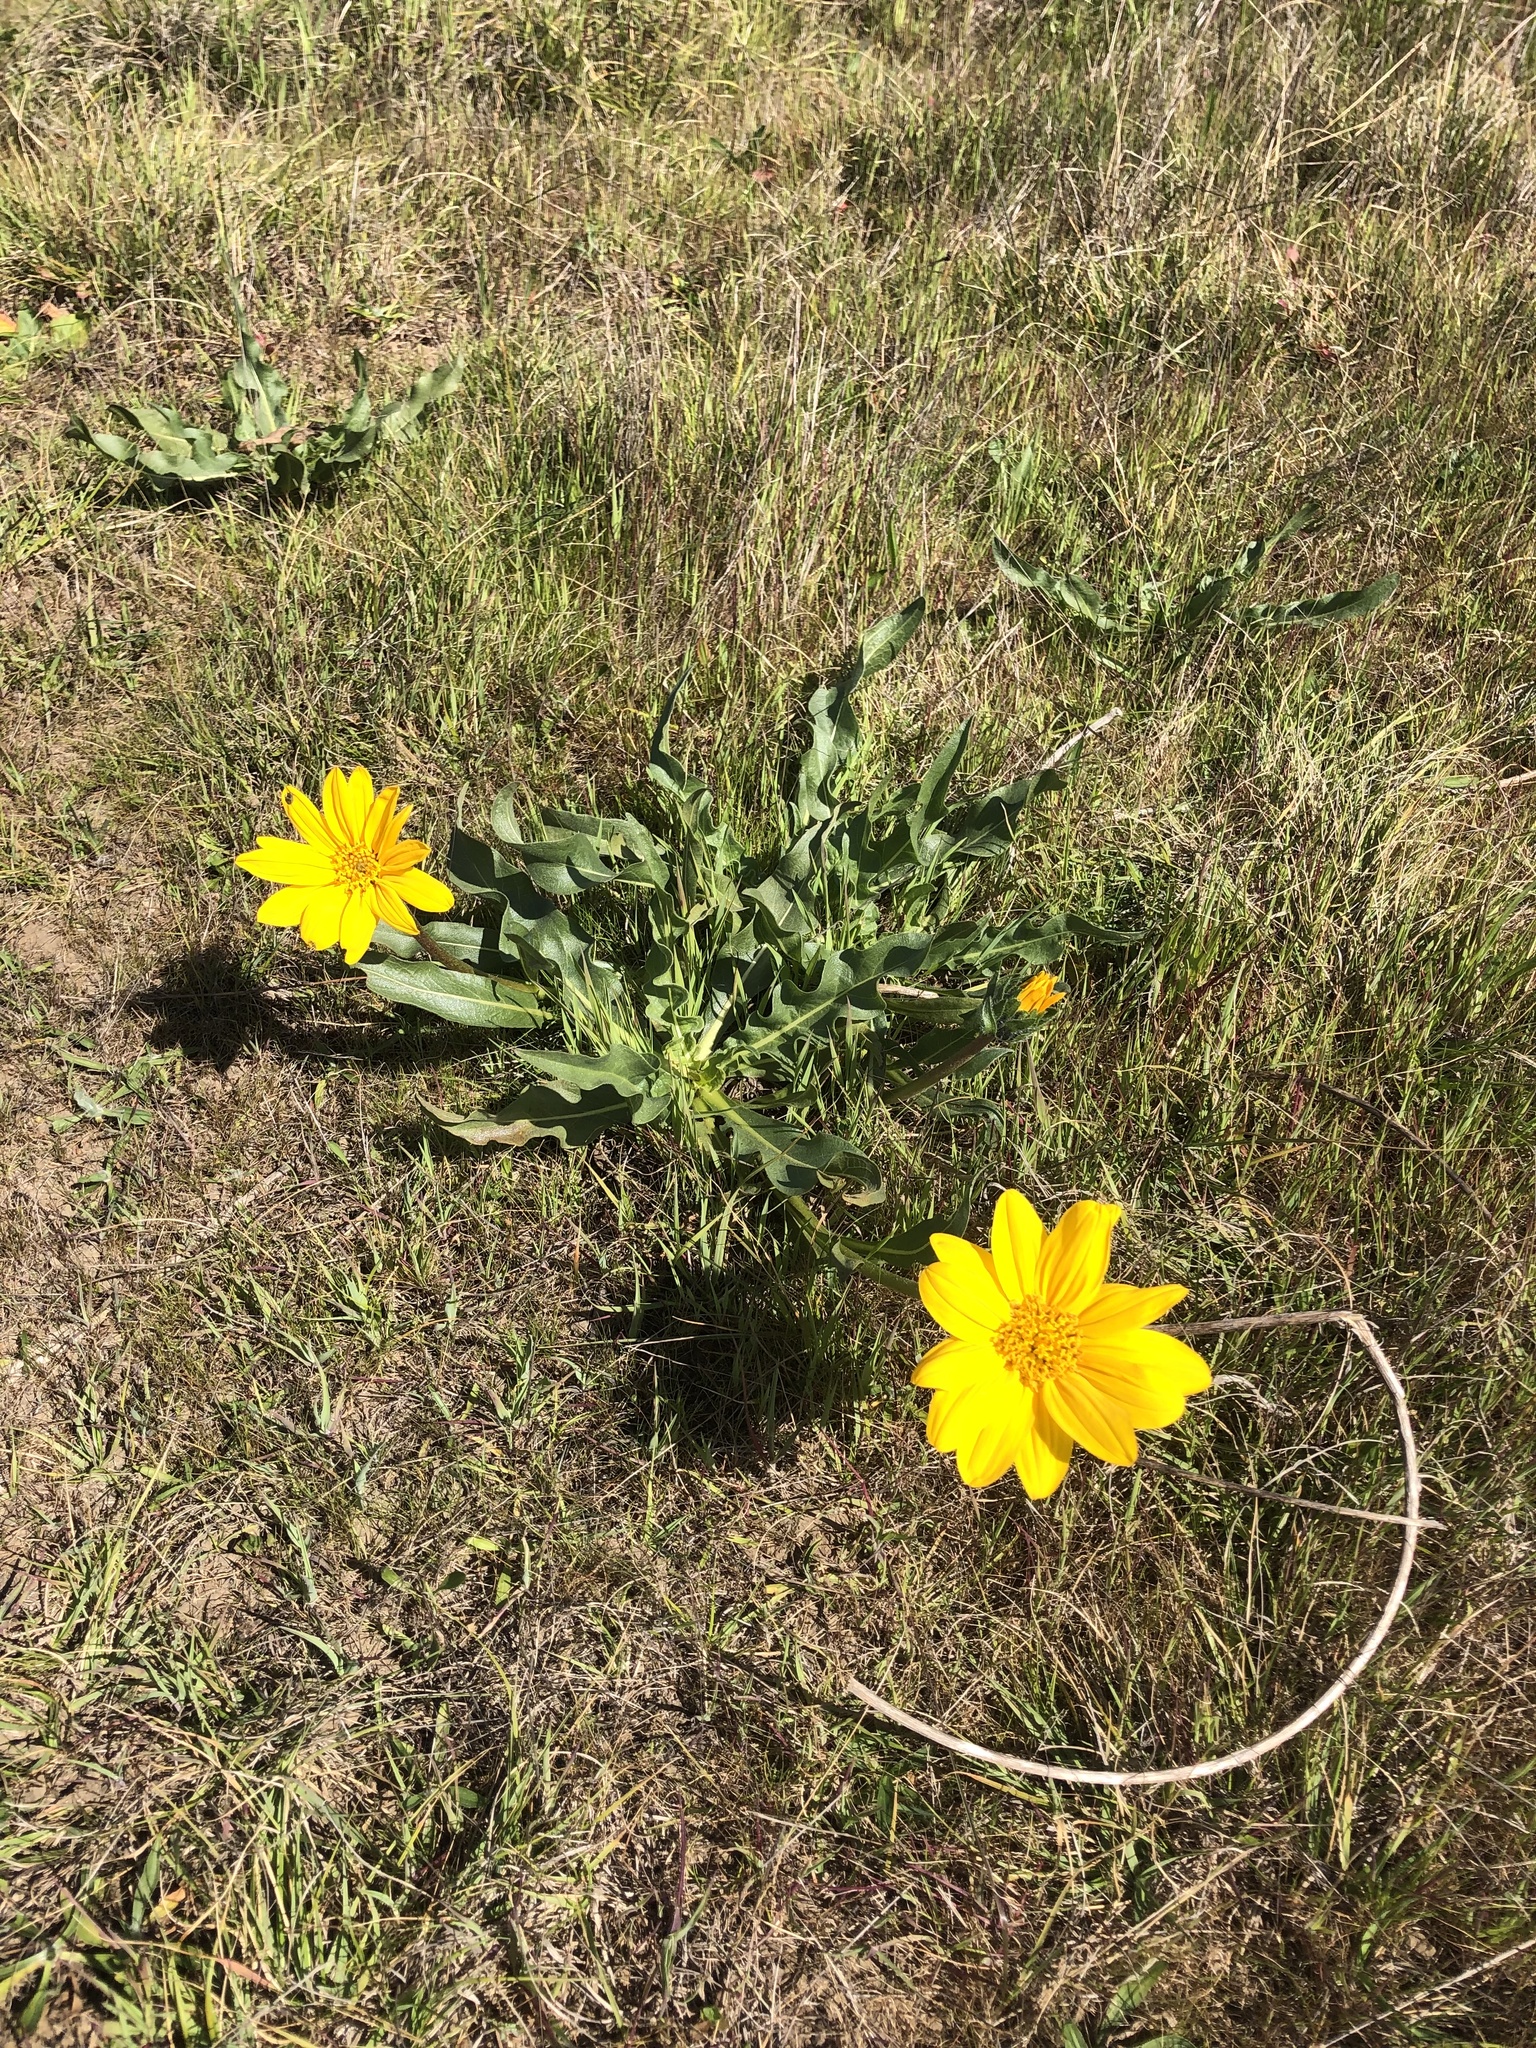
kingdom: Plantae
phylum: Tracheophyta
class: Magnoliopsida
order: Asterales
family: Asteraceae
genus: Wyethia
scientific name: Wyethia angustifolia
